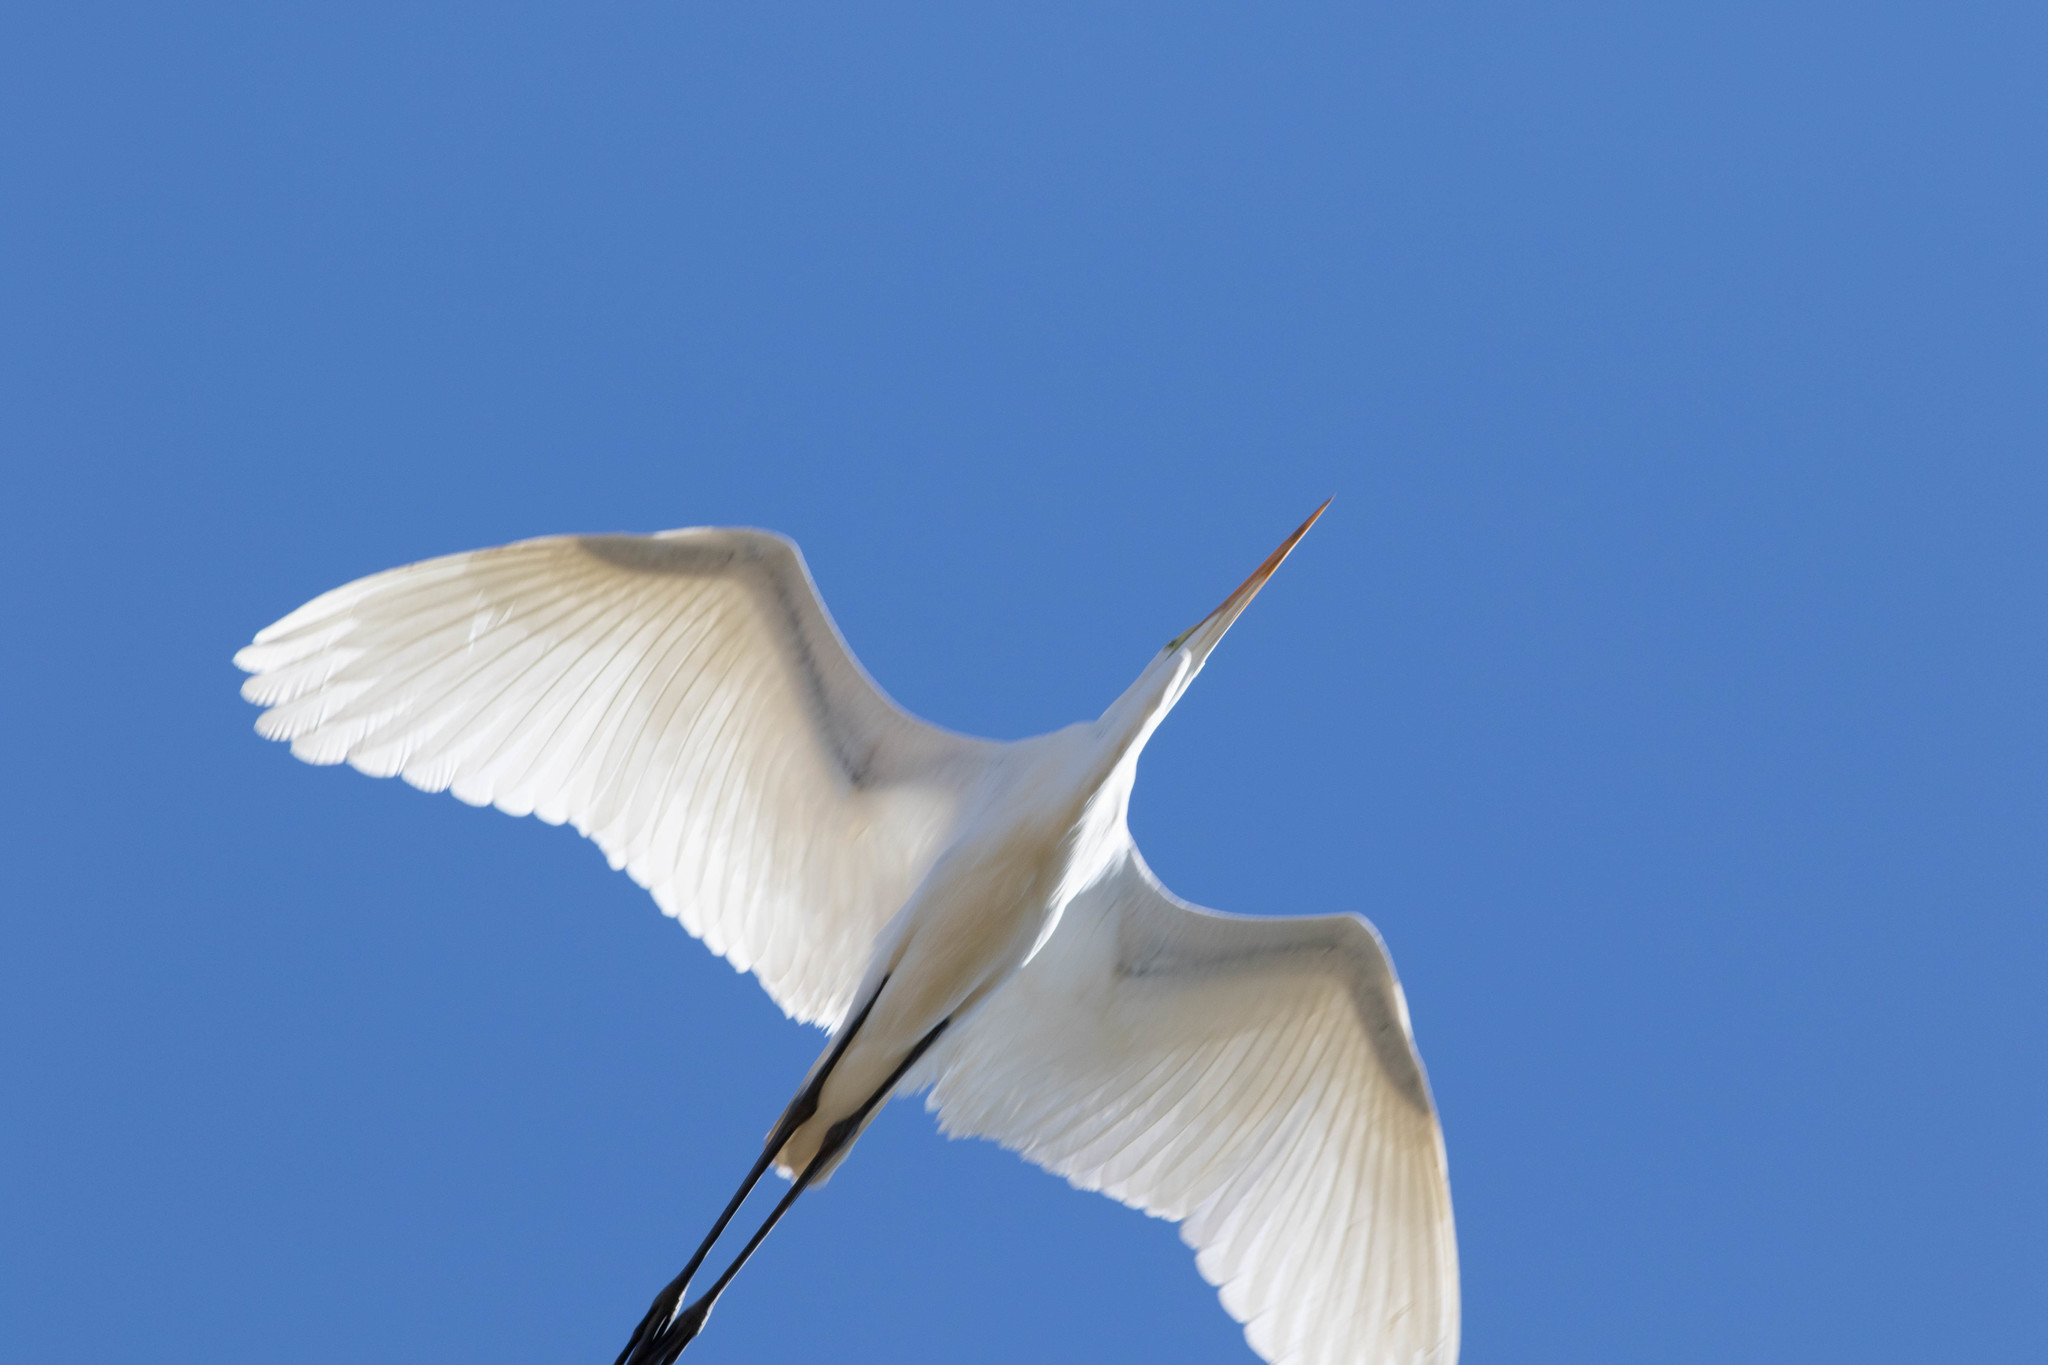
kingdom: Animalia
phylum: Chordata
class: Aves
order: Pelecaniformes
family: Ardeidae
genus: Ardea
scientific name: Ardea alba
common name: Great egret
